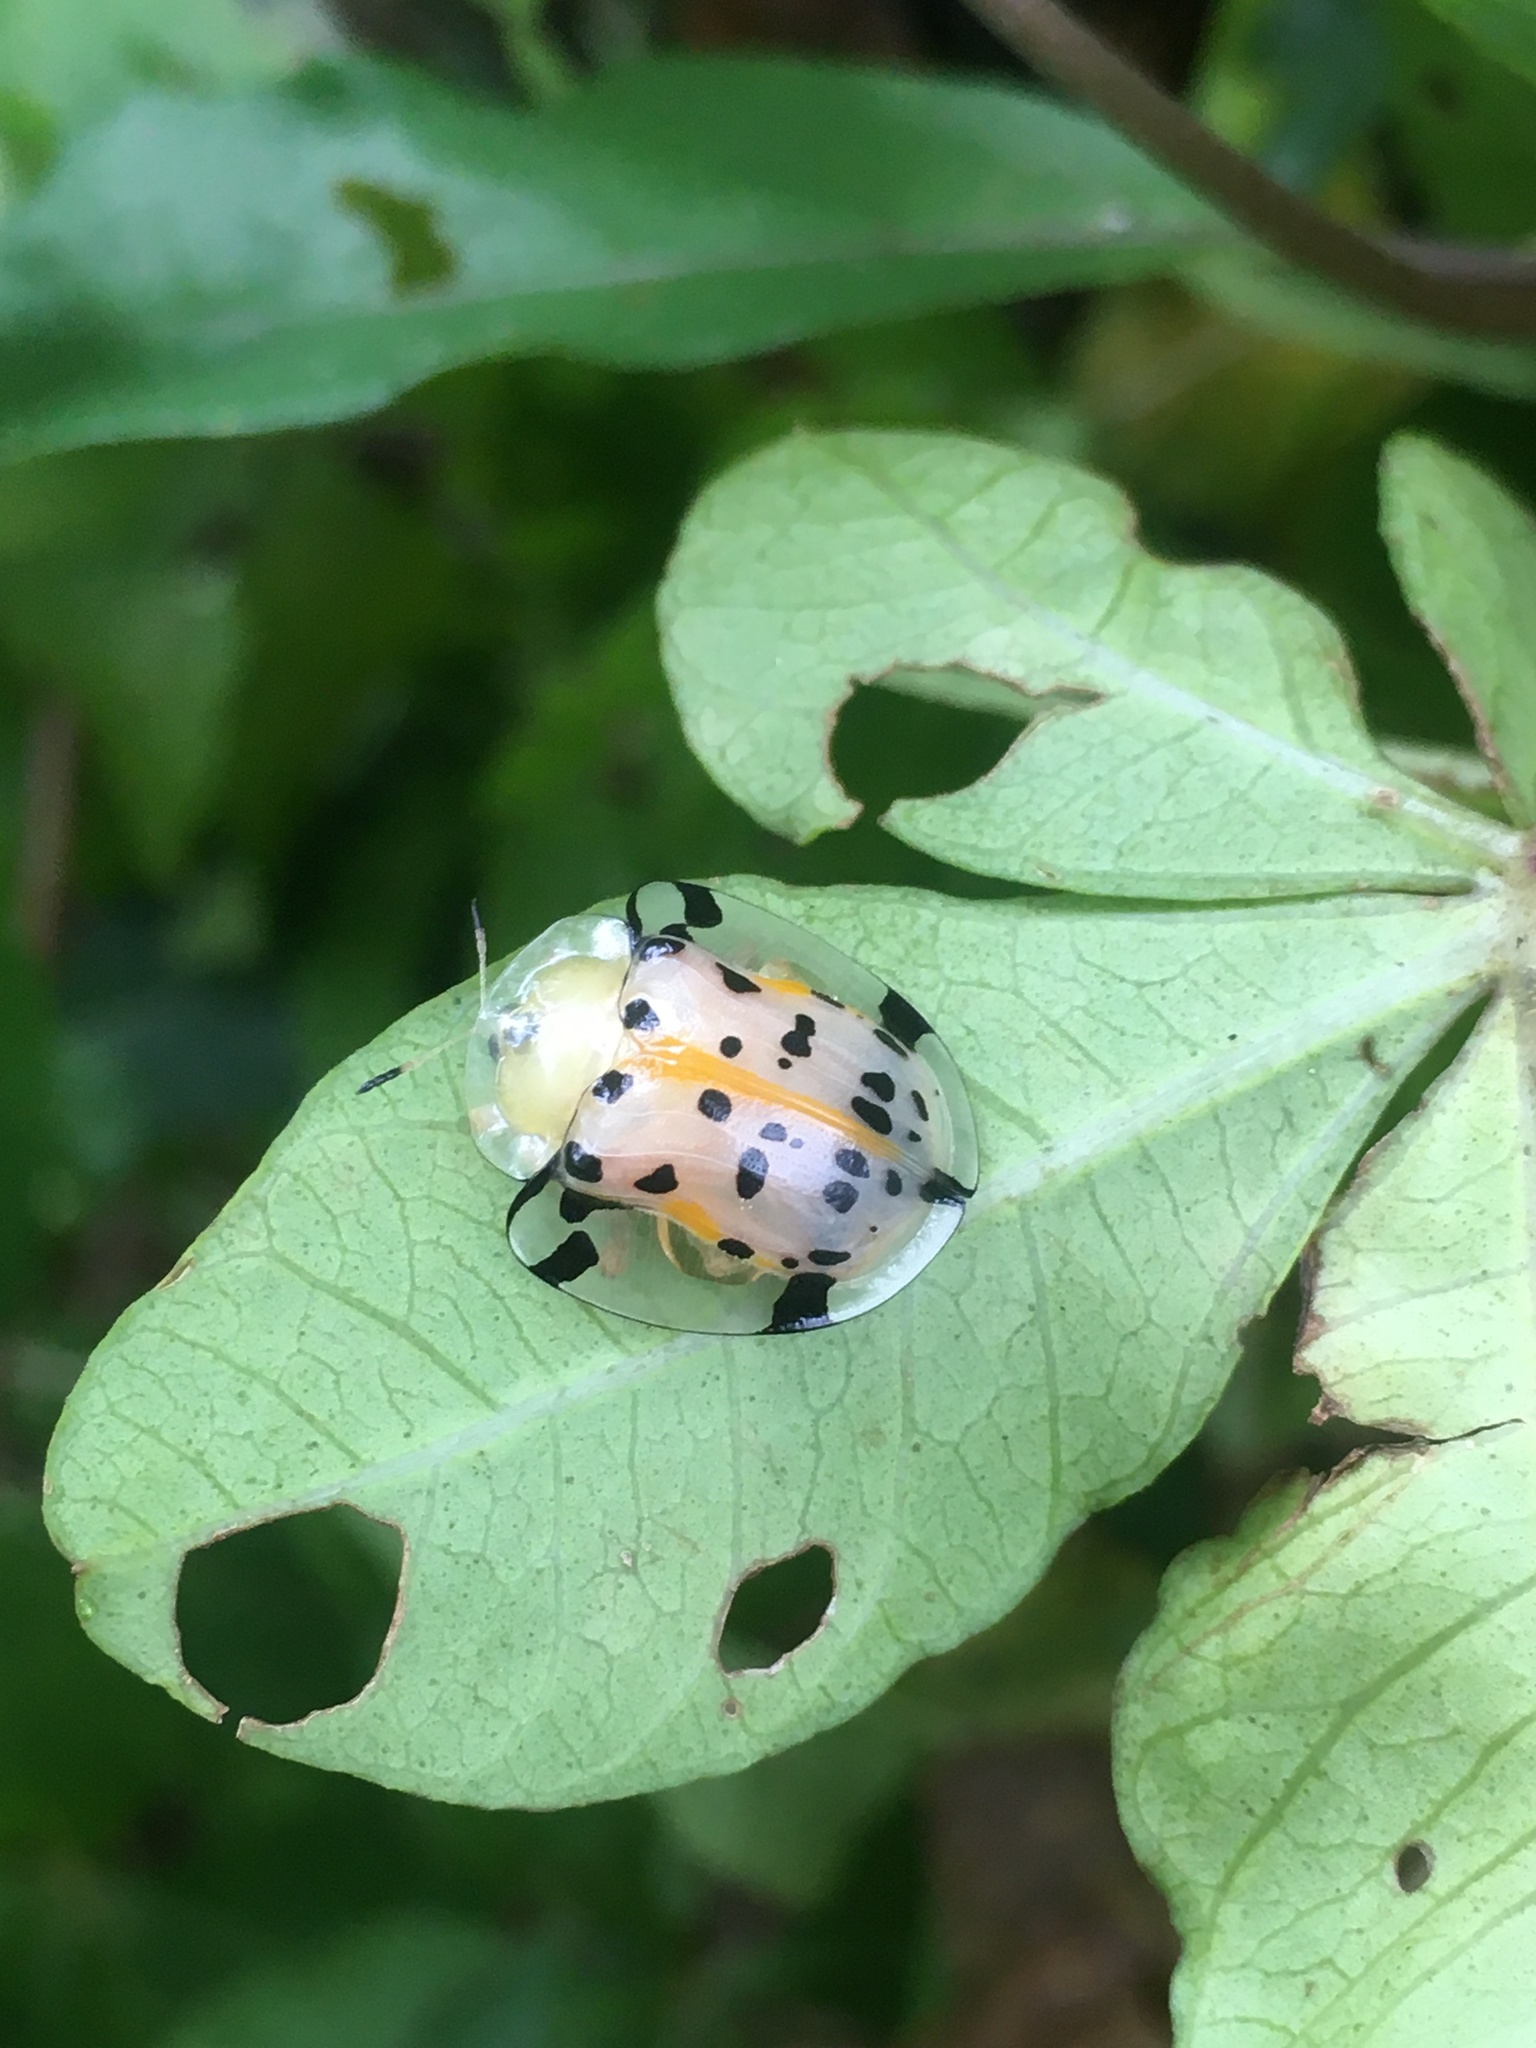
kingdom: Animalia
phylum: Arthropoda
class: Insecta
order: Coleoptera
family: Chrysomelidae
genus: Aspidimorpha
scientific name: Aspidimorpha miliaris
